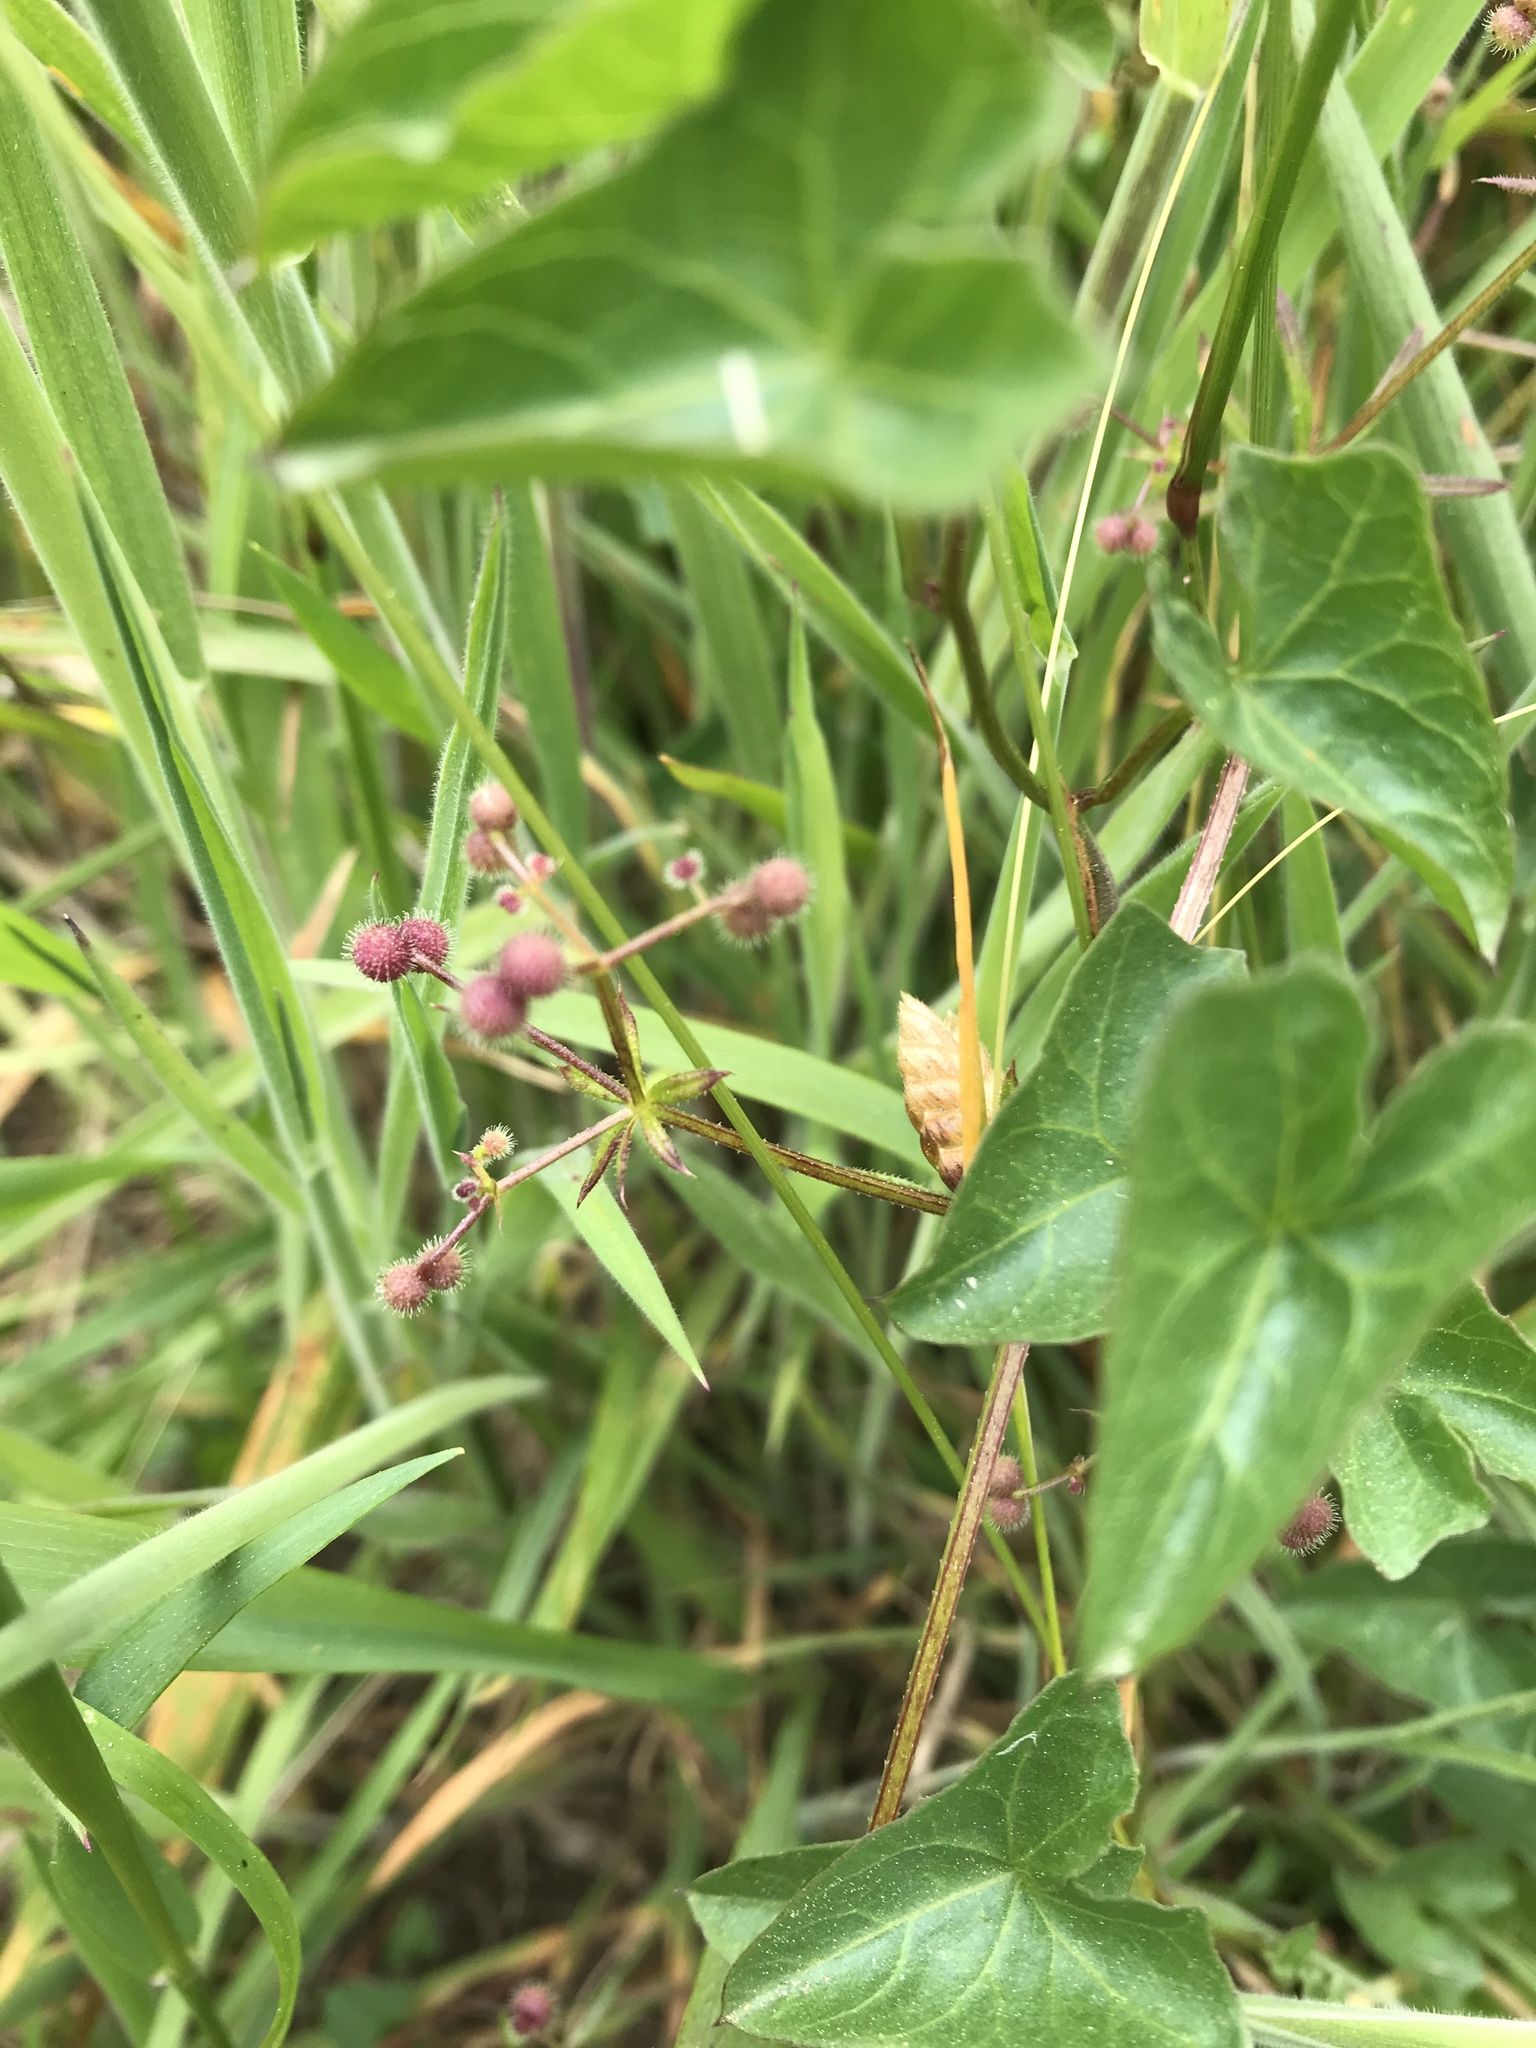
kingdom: Plantae
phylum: Tracheophyta
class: Magnoliopsida
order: Solanales
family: Convolvulaceae
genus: Calystegia
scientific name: Calystegia purpurata
